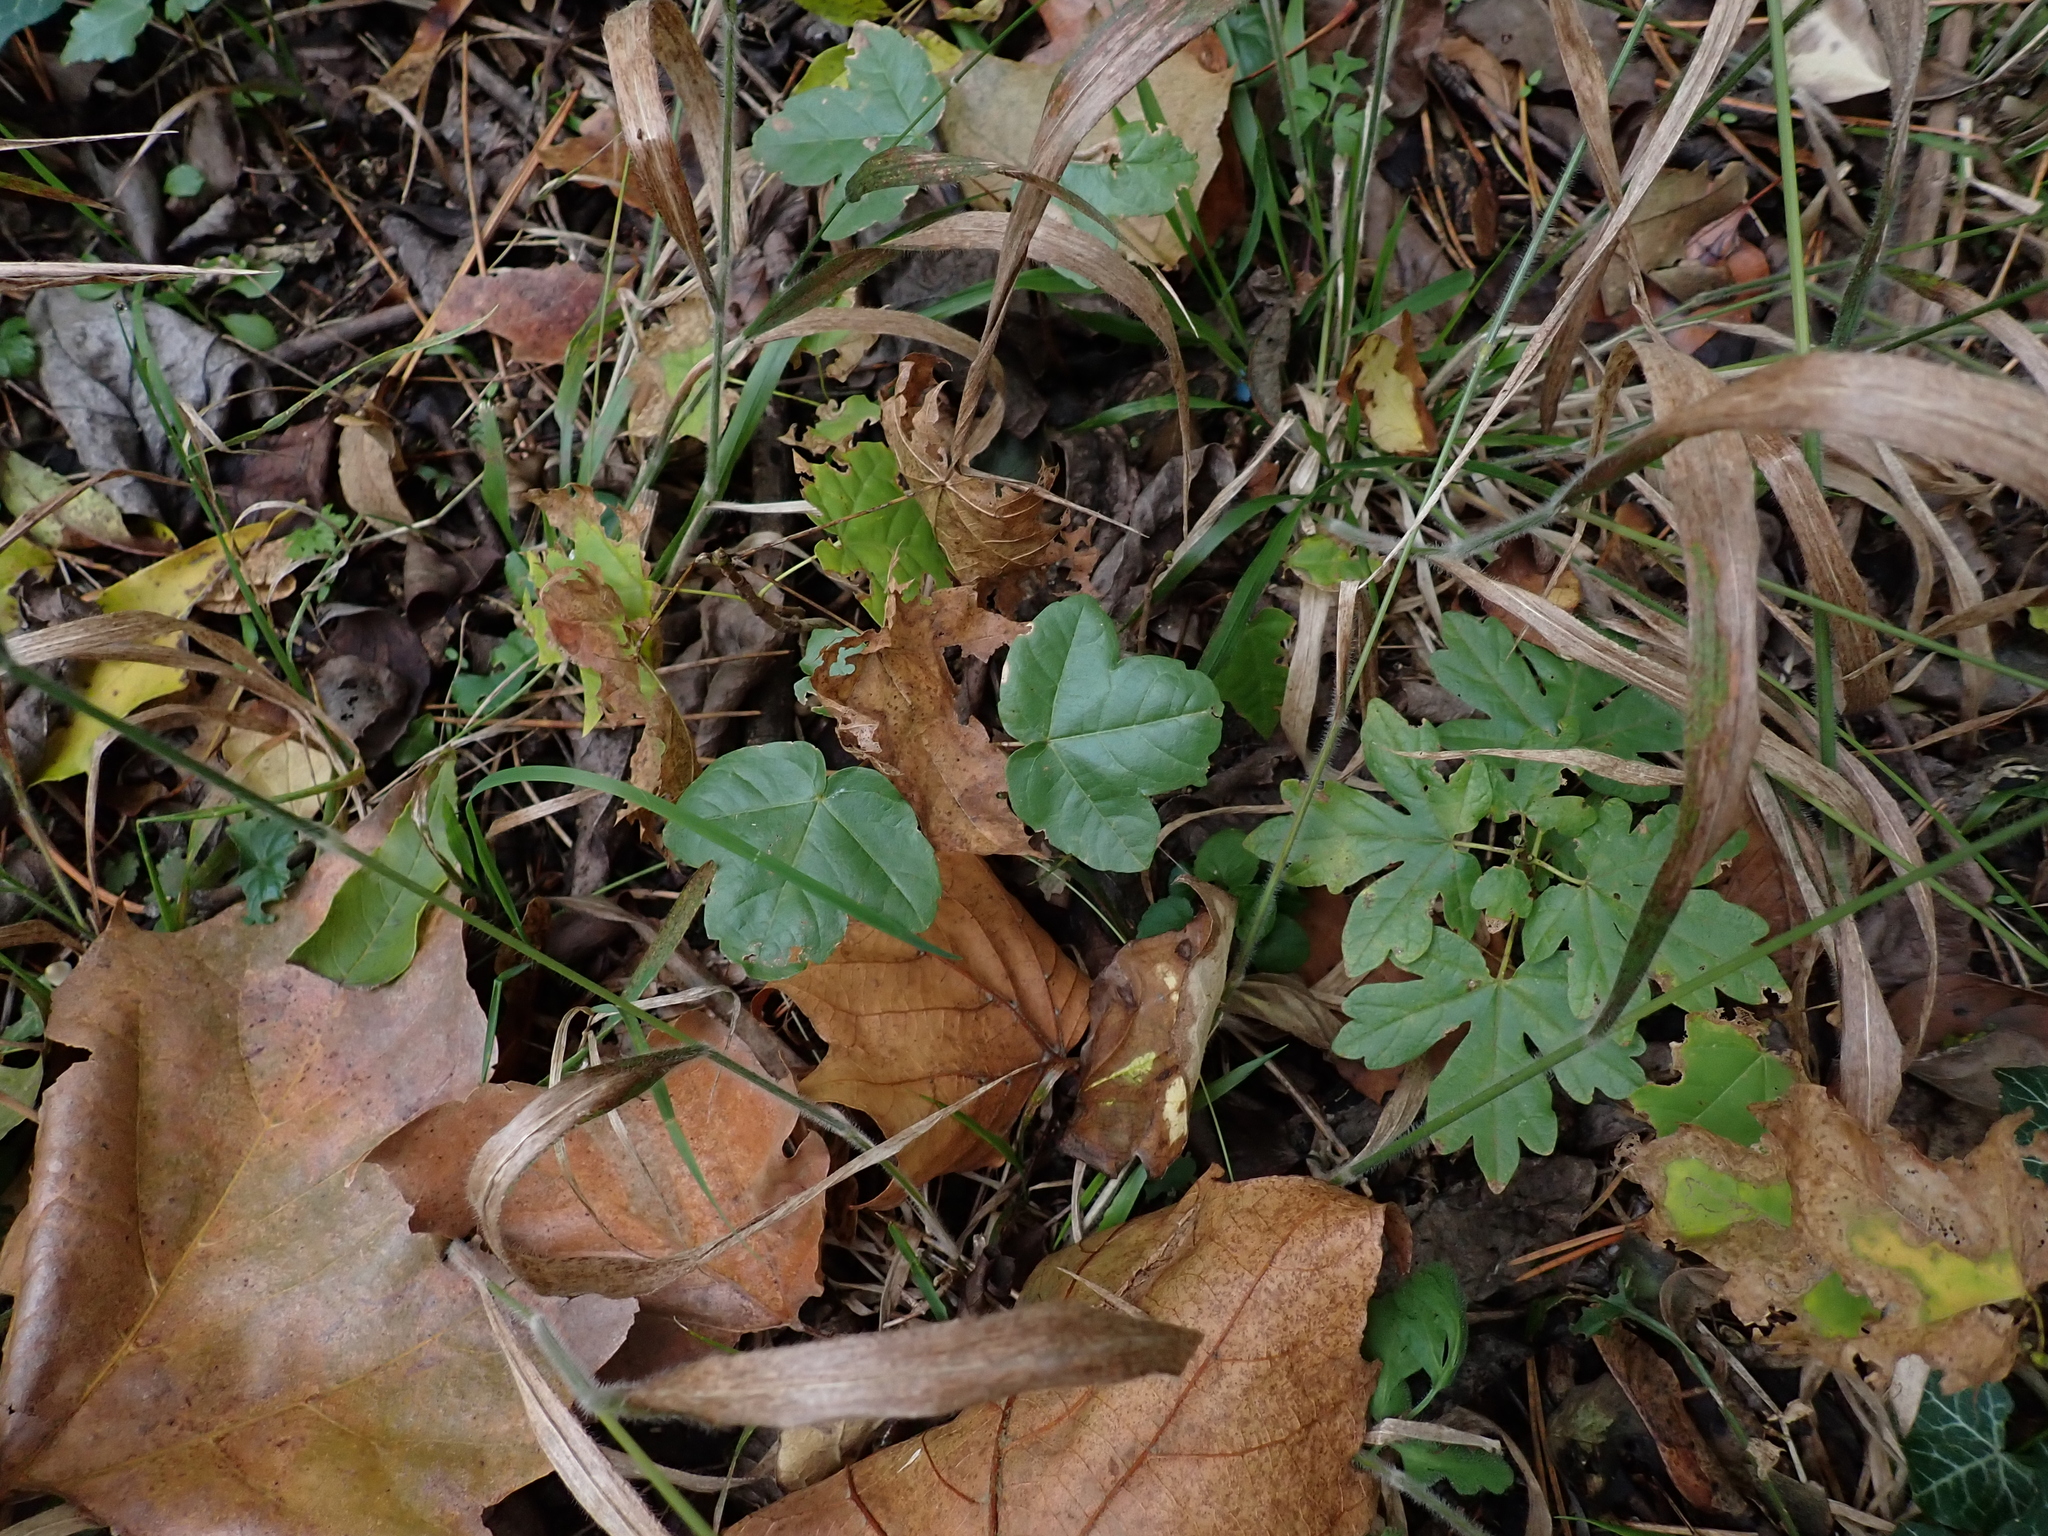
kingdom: Plantae
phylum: Tracheophyta
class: Magnoliopsida
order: Sapindales
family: Sapindaceae
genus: Acer
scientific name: Acer monspessulanum
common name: Montpellier maple
